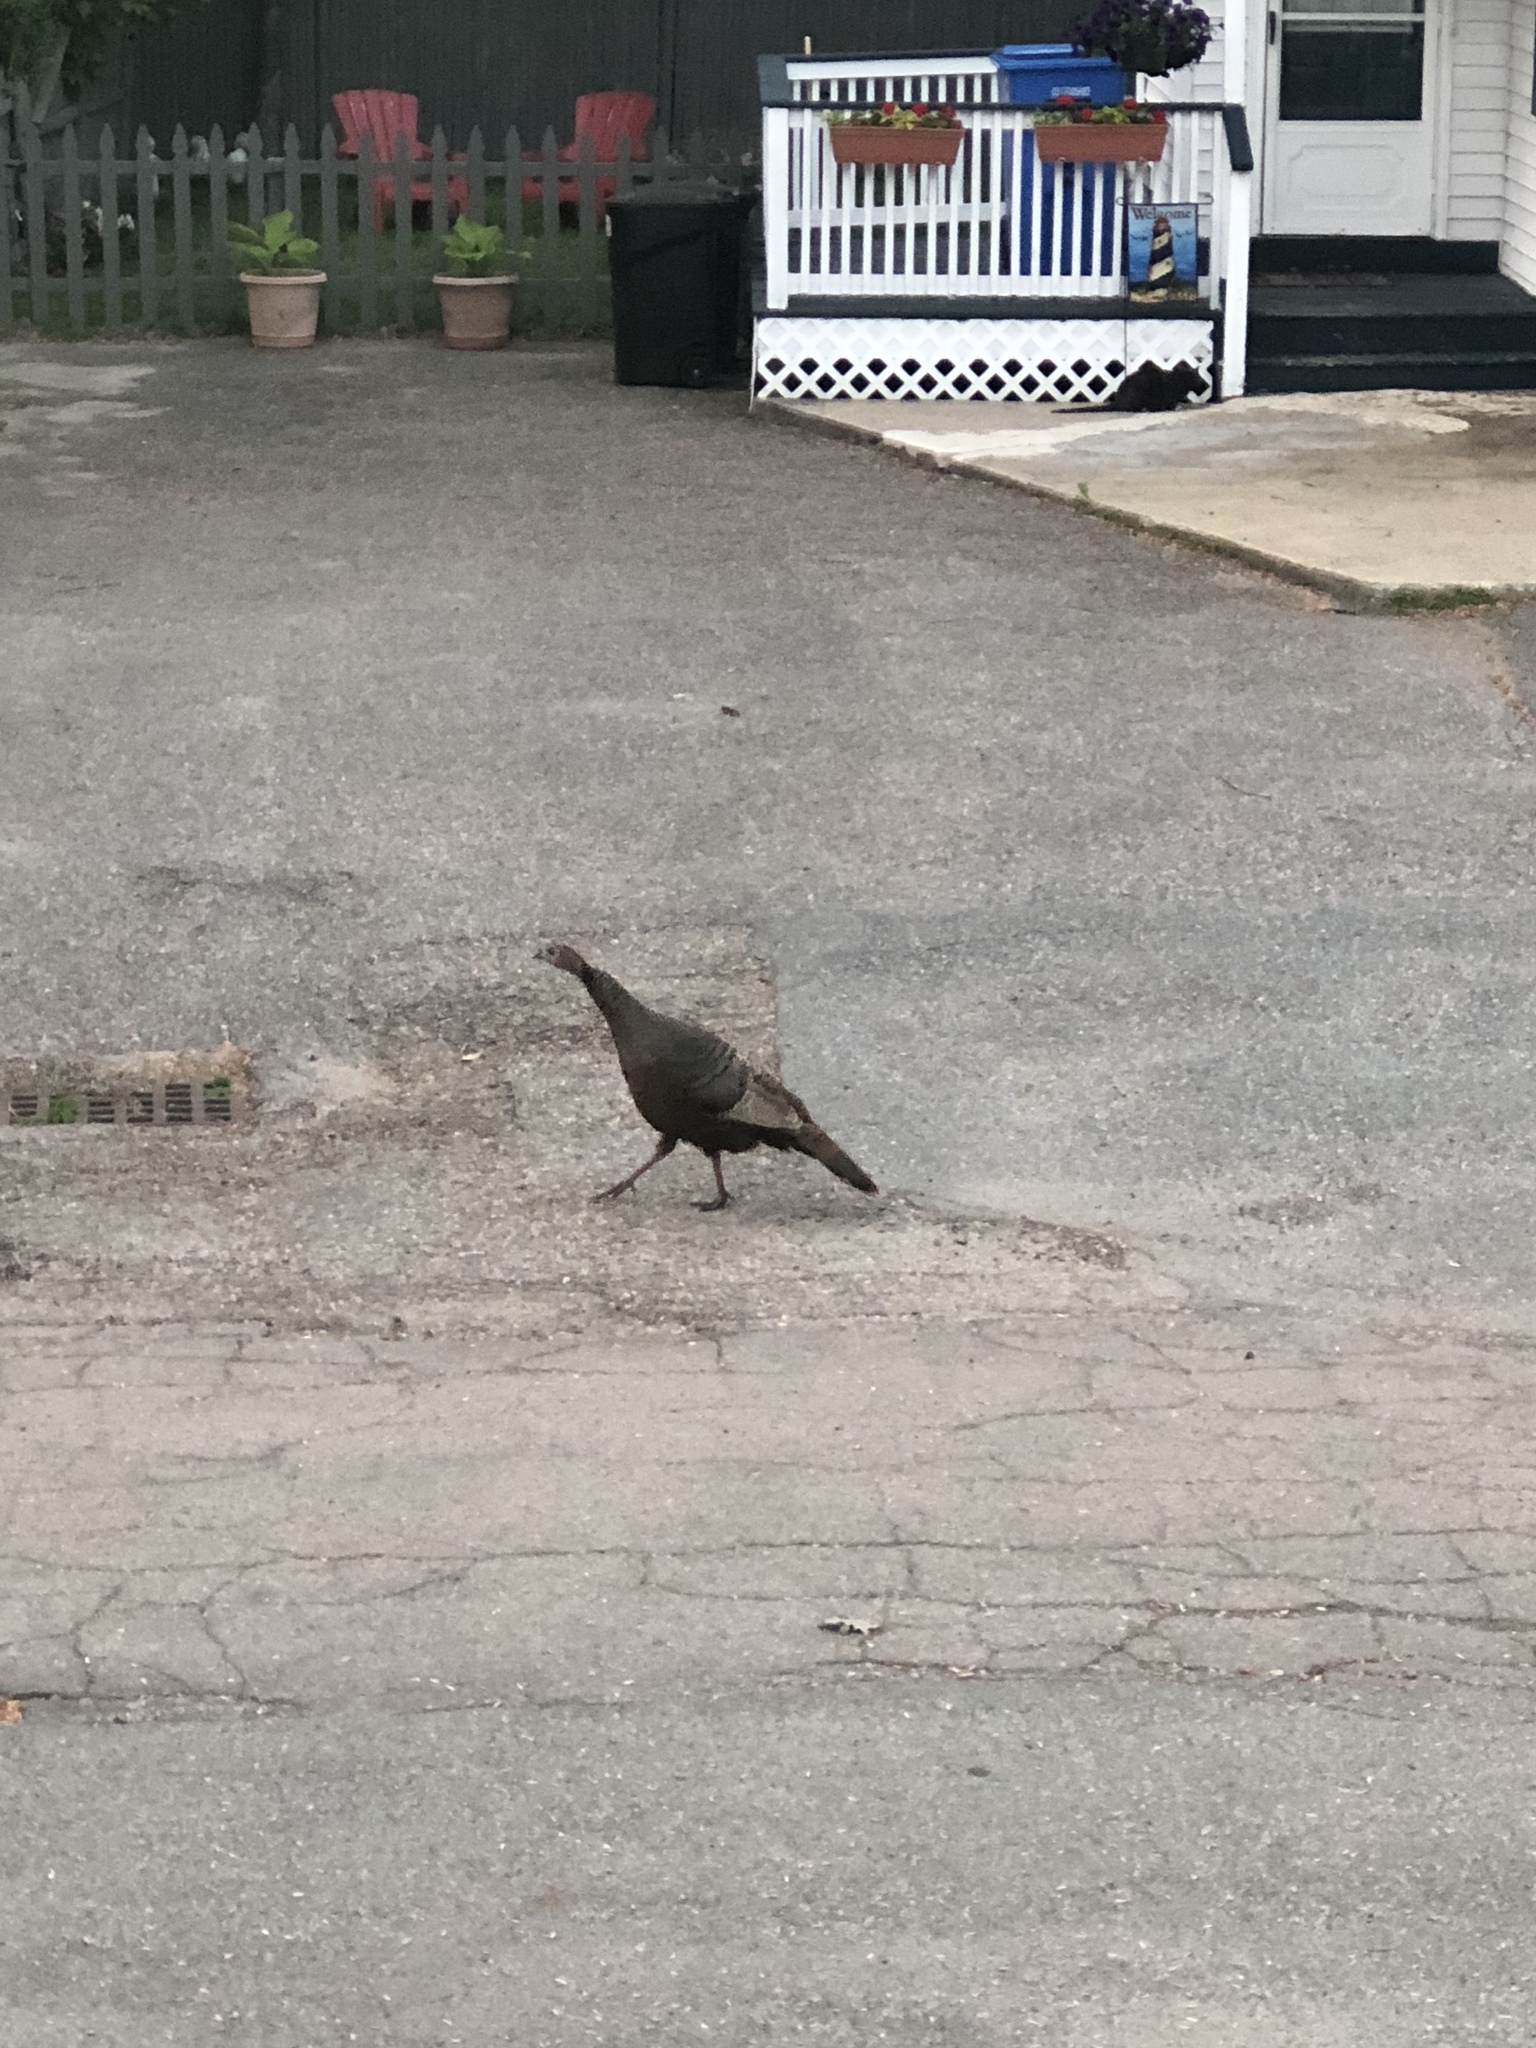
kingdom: Animalia
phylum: Chordata
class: Aves
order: Galliformes
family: Phasianidae
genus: Meleagris
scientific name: Meleagris gallopavo
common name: Wild turkey
